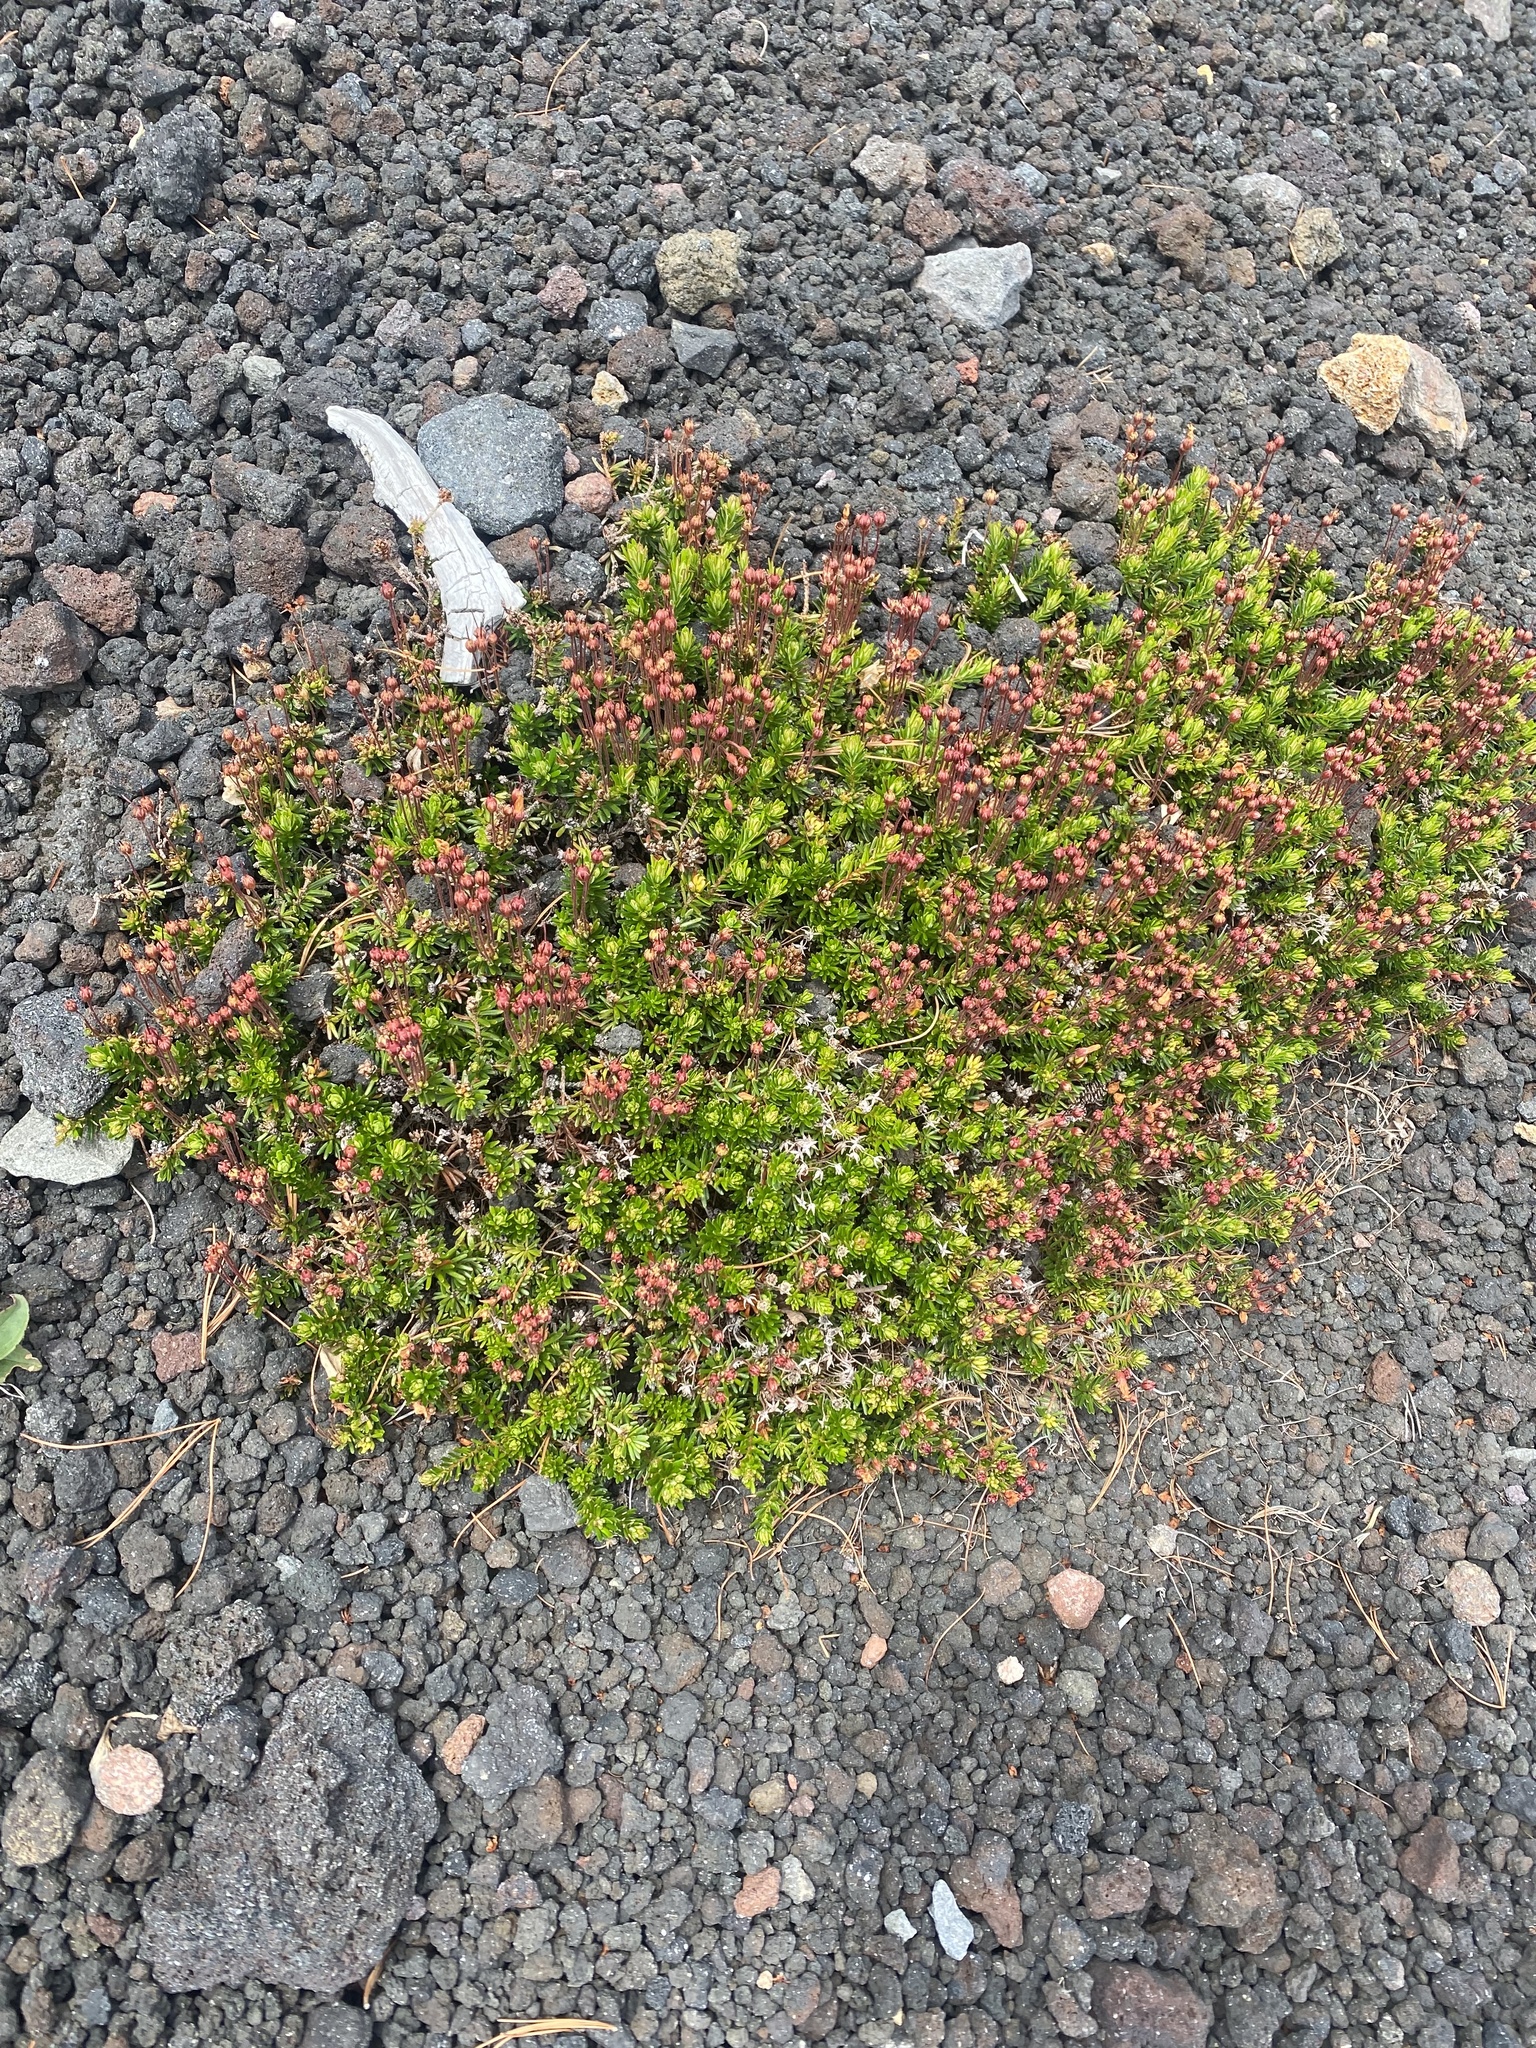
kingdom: Plantae
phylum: Tracheophyta
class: Magnoliopsida
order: Ericales
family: Ericaceae
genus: Phyllodoce
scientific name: Phyllodoce caerulea
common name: Blue heath
